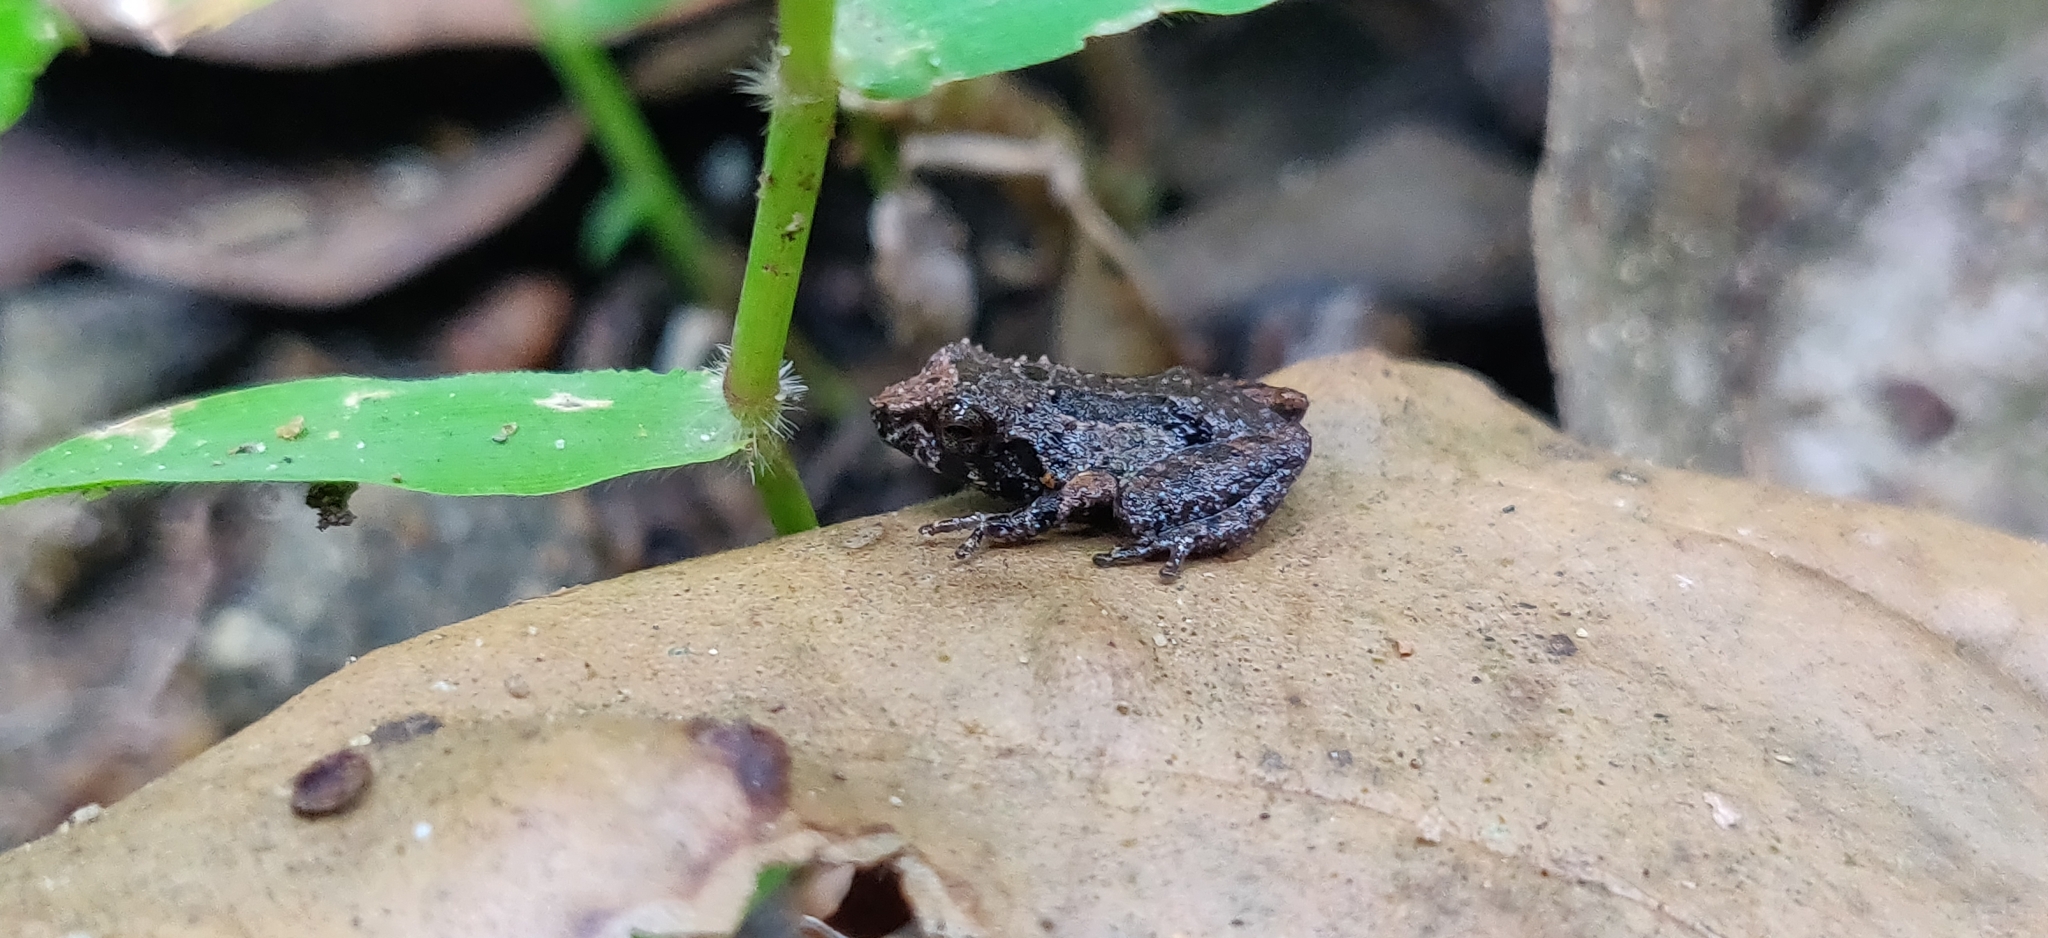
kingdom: Animalia
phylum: Chordata
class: Amphibia
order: Anura
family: Rhacophoridae
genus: Raorchestes
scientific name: Raorchestes griet
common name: Griet bush frog
